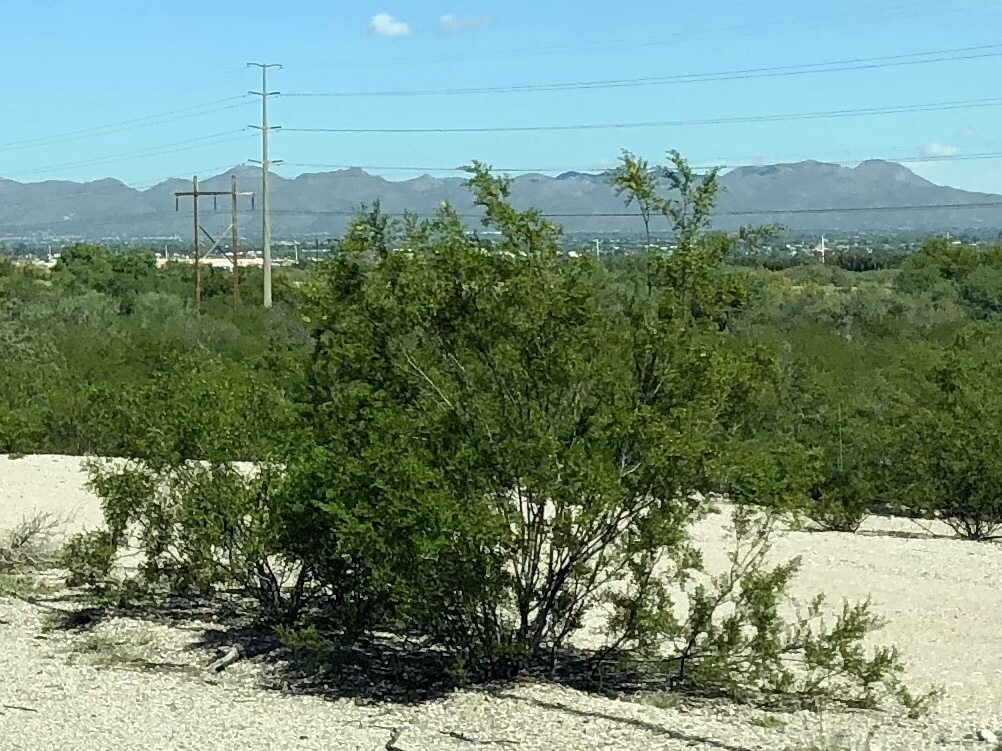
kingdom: Plantae
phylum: Tracheophyta
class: Magnoliopsida
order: Zygophyllales
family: Zygophyllaceae
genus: Larrea
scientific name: Larrea tridentata
